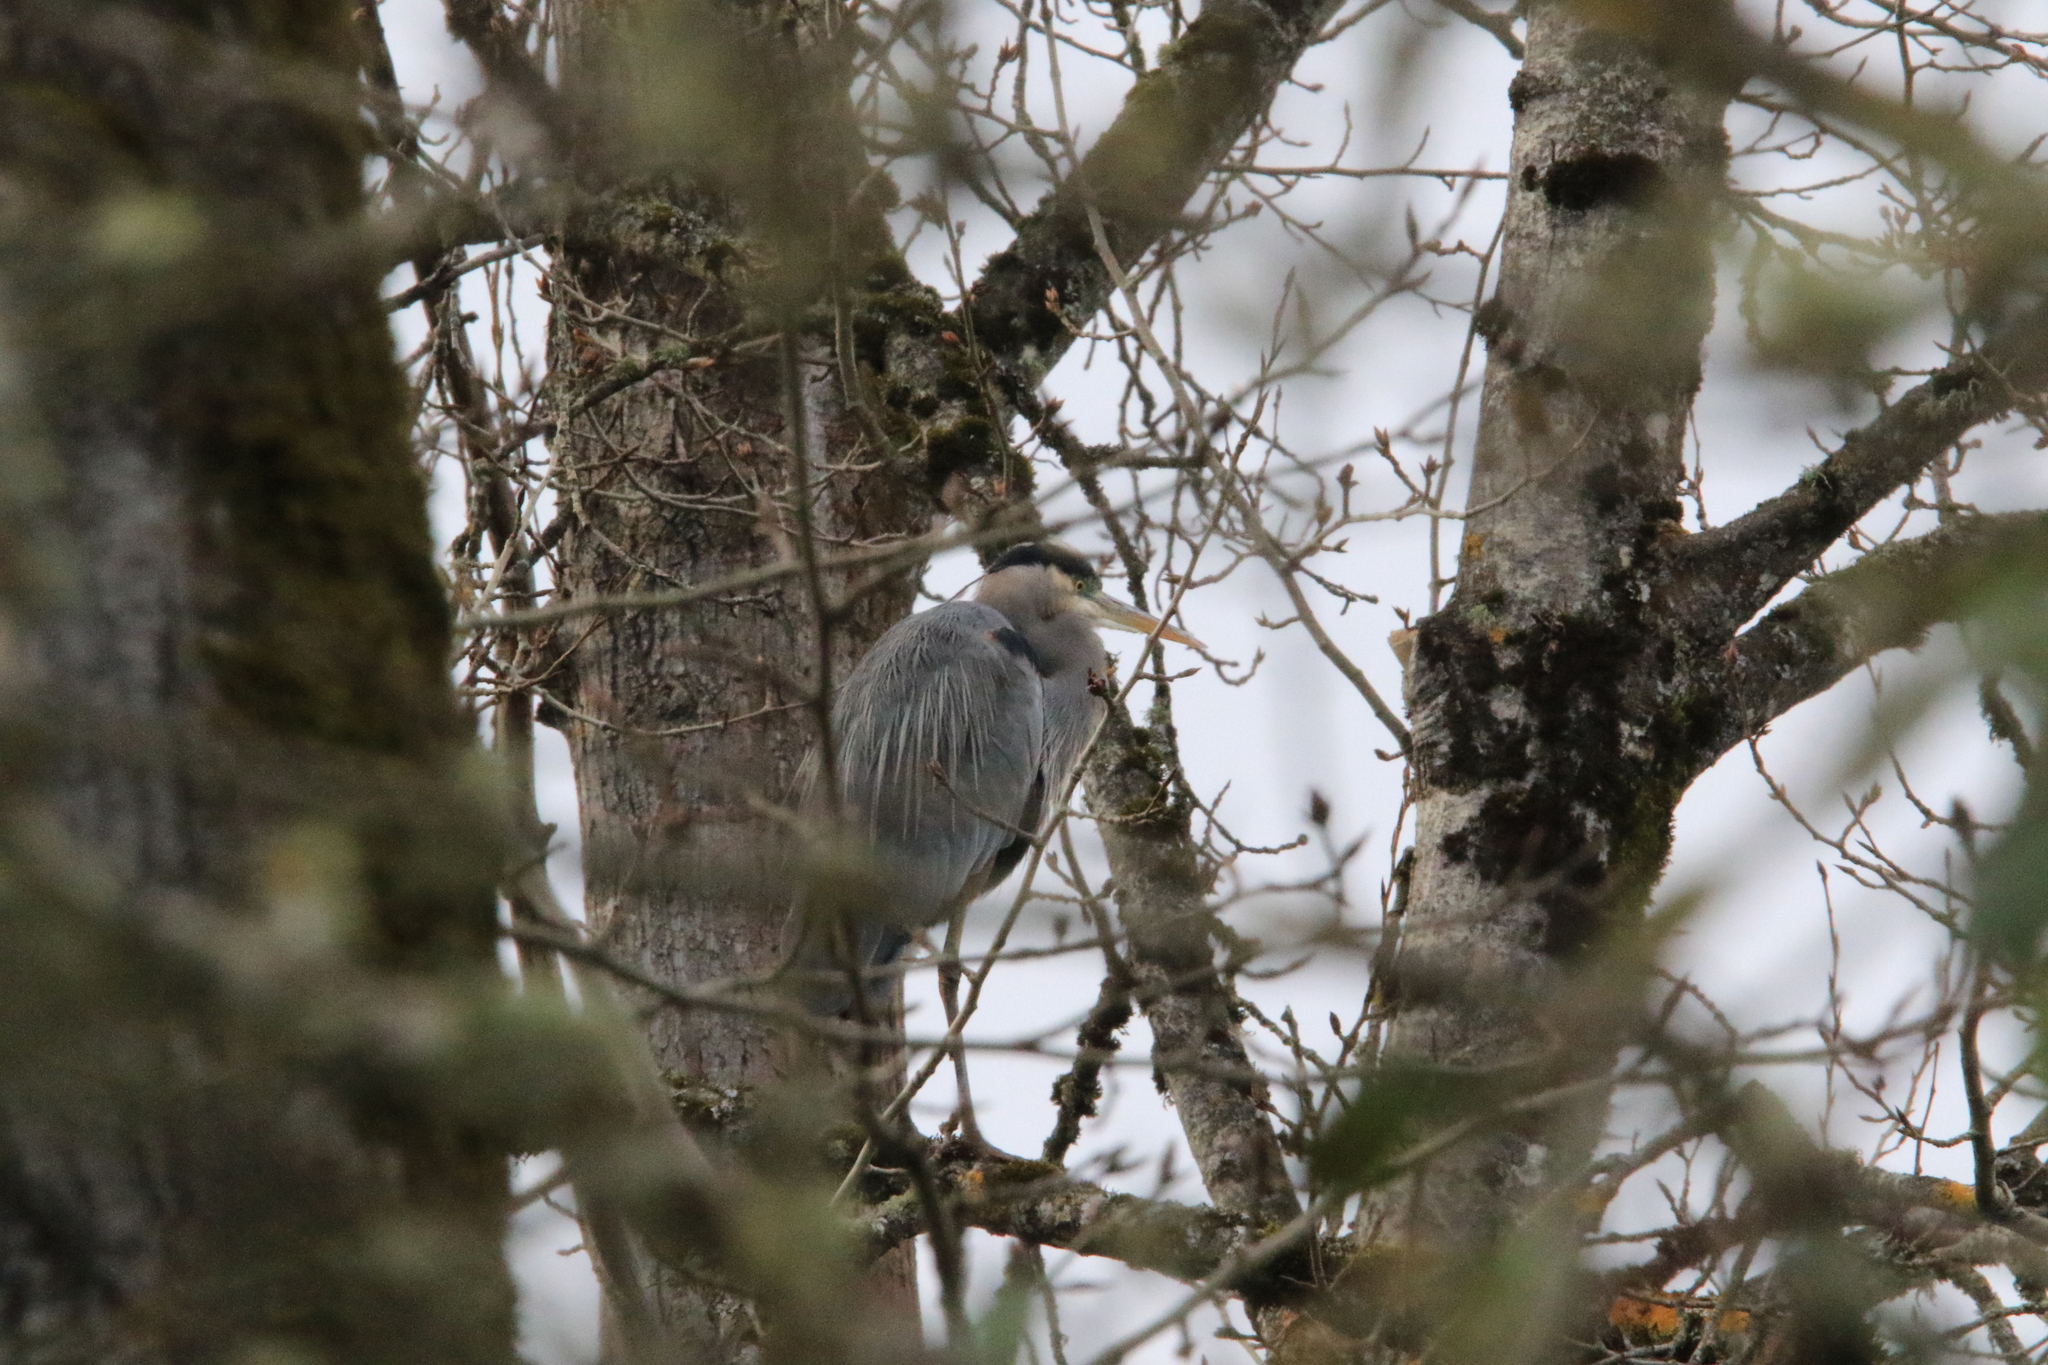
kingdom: Animalia
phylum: Chordata
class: Aves
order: Pelecaniformes
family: Ardeidae
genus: Ardea
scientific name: Ardea herodias
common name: Great blue heron
